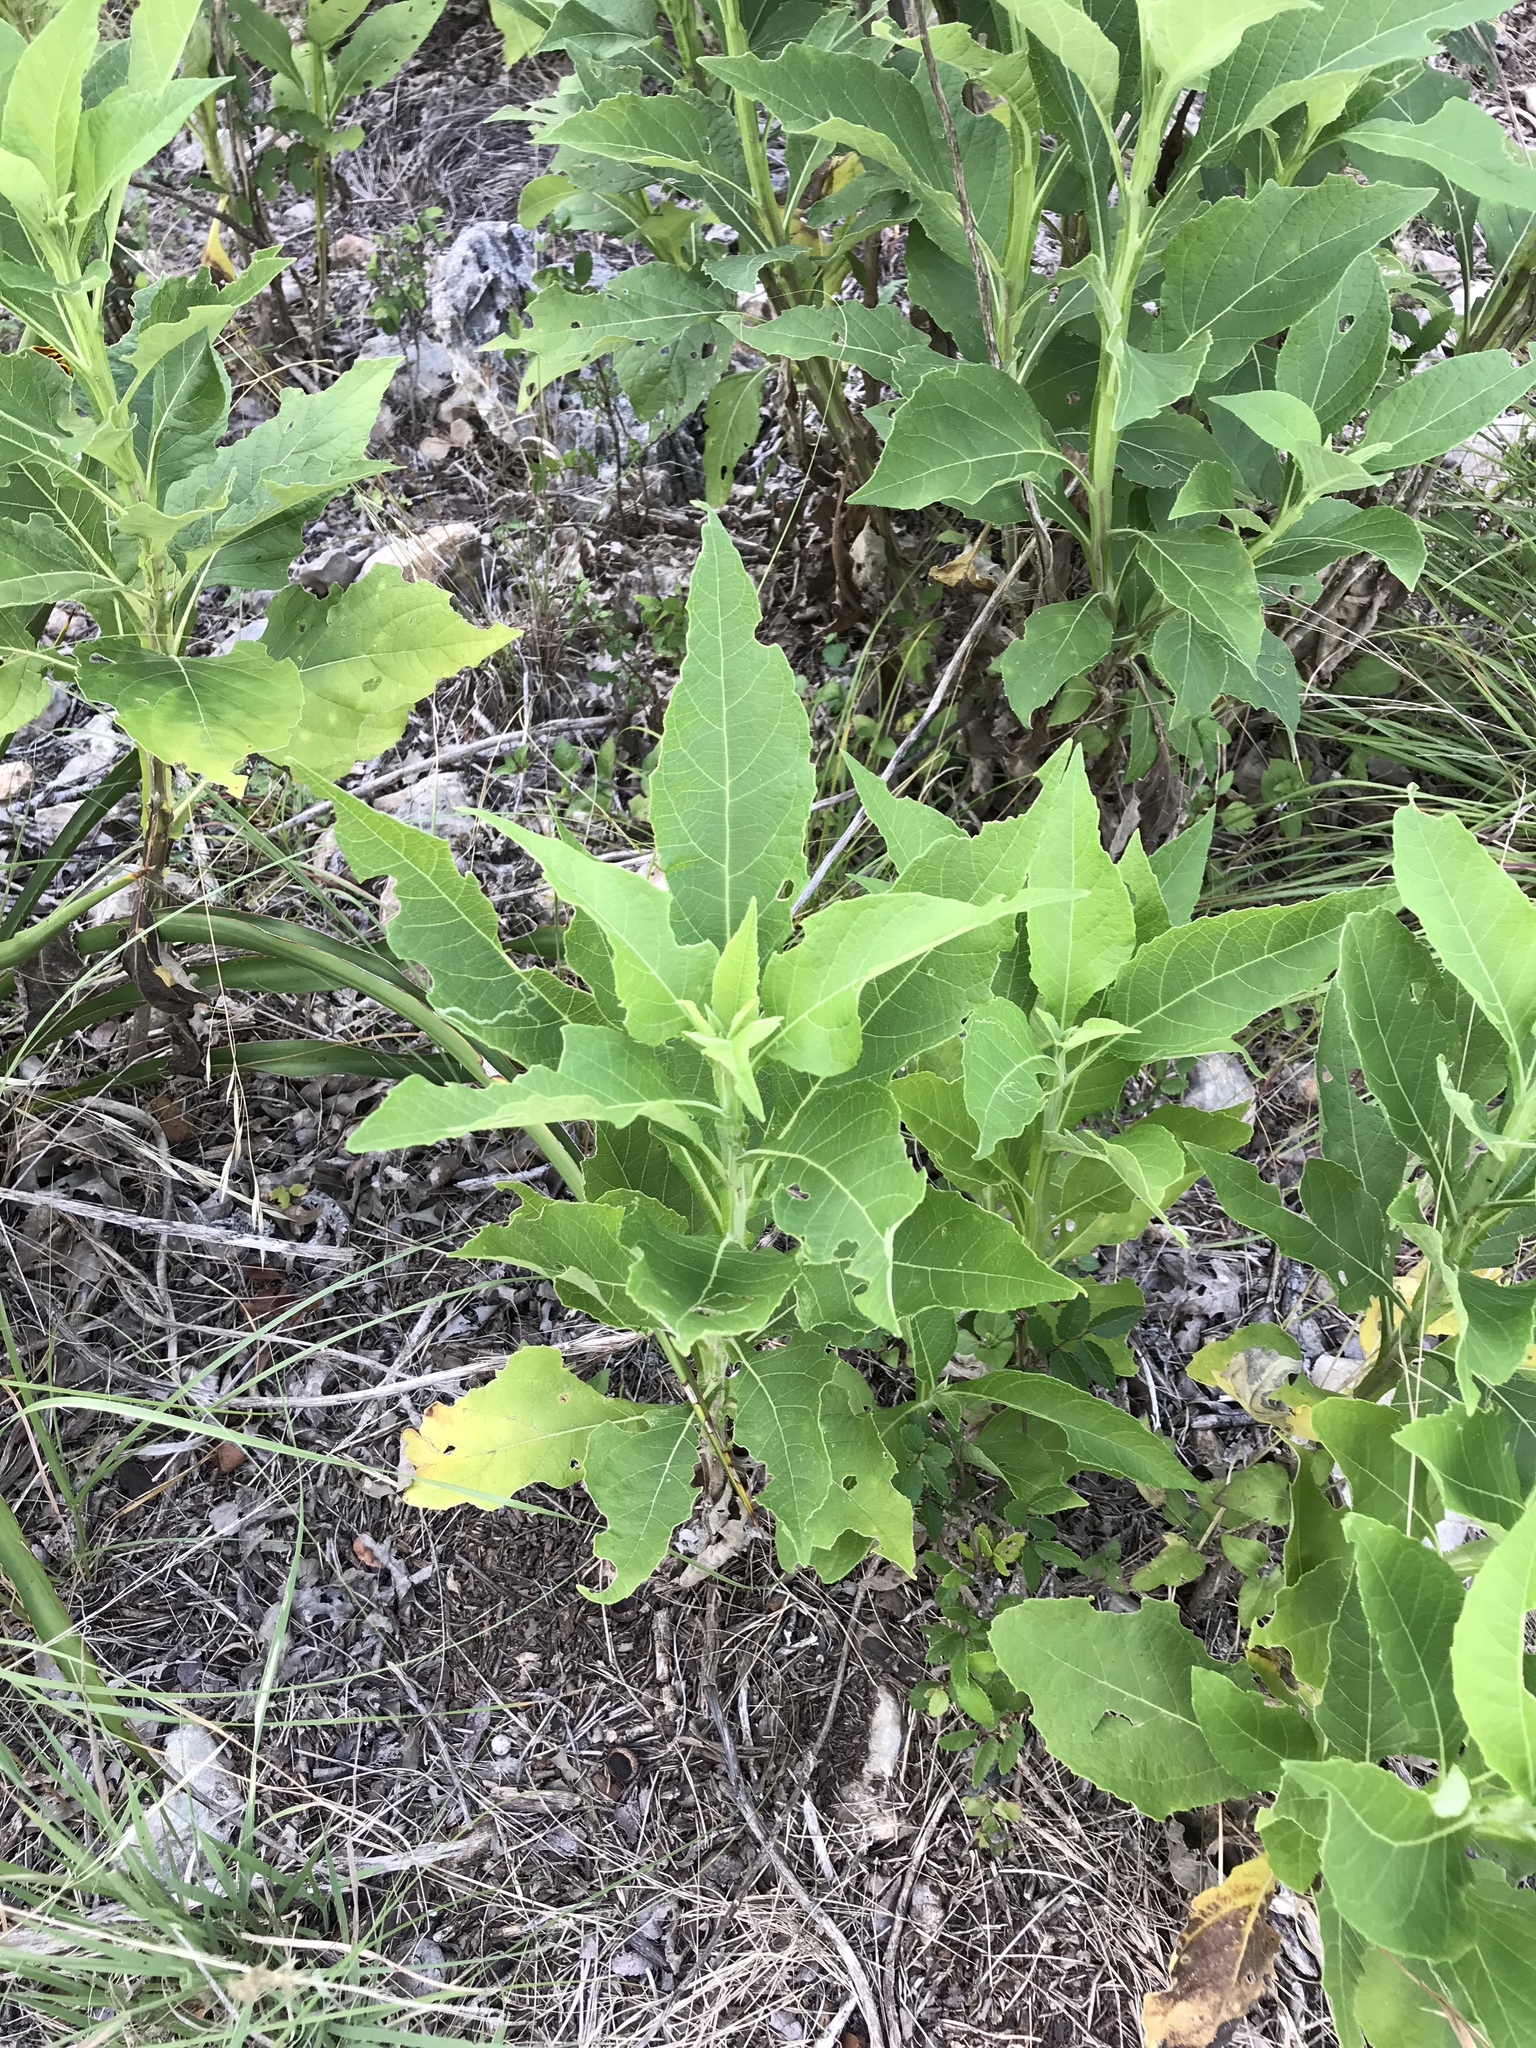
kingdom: Plantae
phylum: Tracheophyta
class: Magnoliopsida
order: Asterales
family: Asteraceae
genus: Verbesina
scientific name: Verbesina virginica
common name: Frostweed
